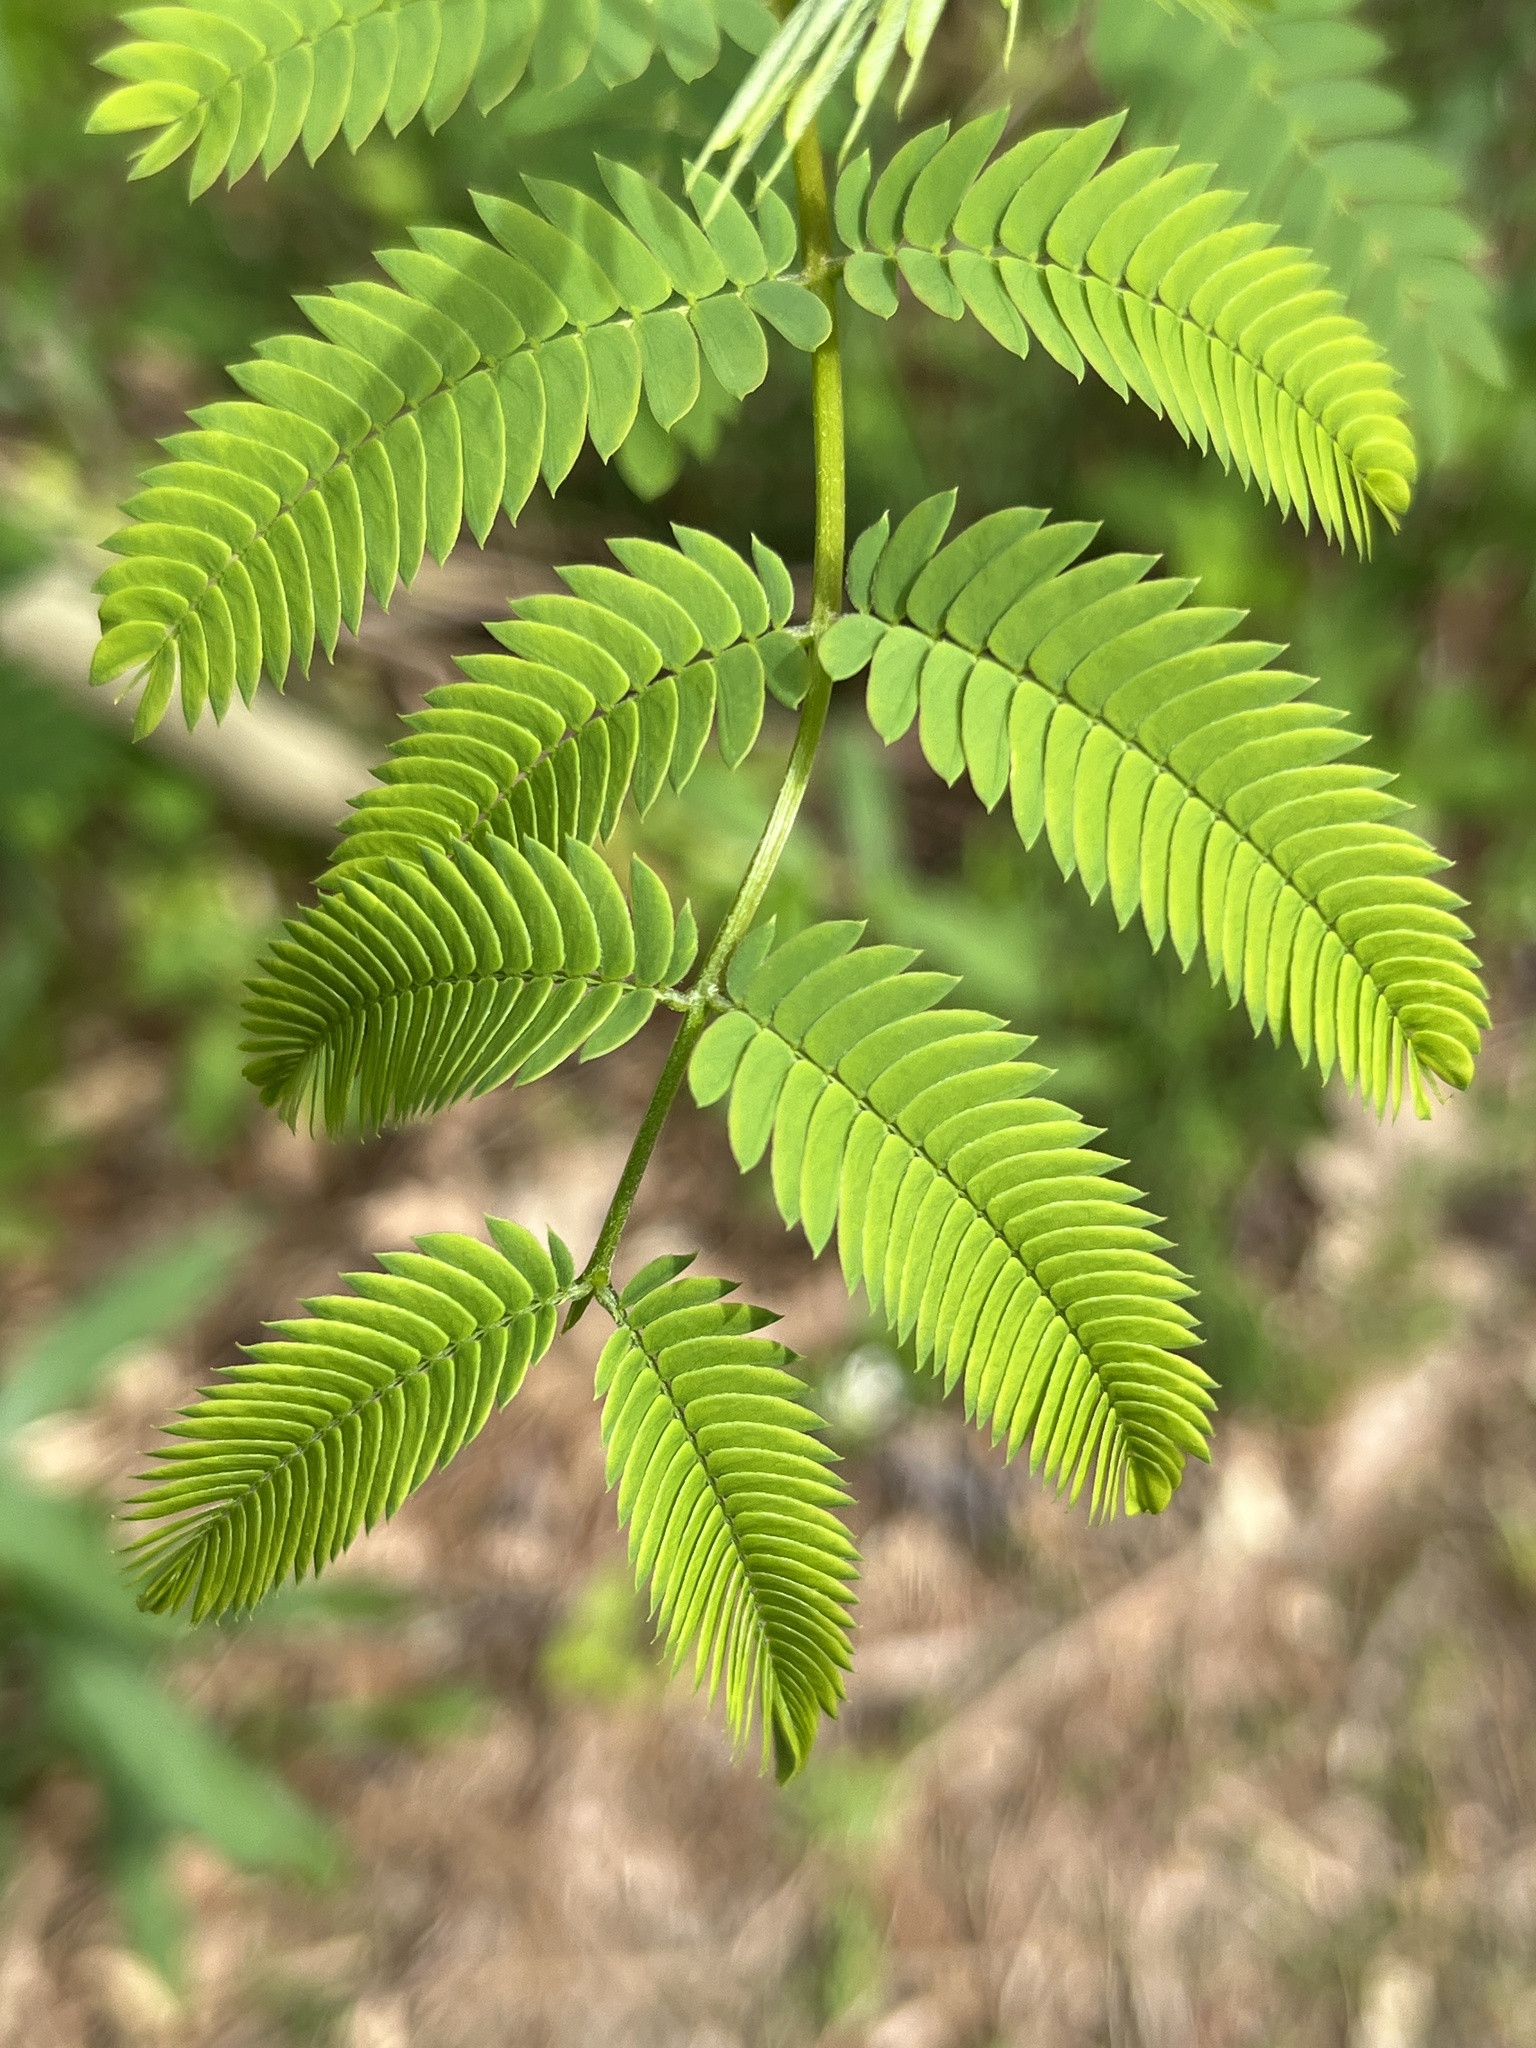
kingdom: Plantae
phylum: Tracheophyta
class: Magnoliopsida
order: Fabales
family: Fabaceae
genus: Albizia
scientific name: Albizia julibrissin
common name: Silktree
